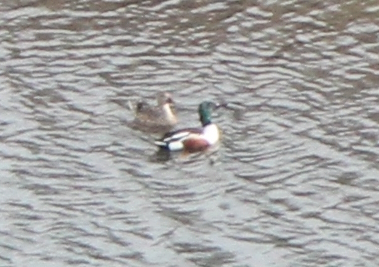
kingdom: Animalia
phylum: Chordata
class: Aves
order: Anseriformes
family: Anatidae
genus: Spatula
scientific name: Spatula clypeata
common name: Northern shoveler
